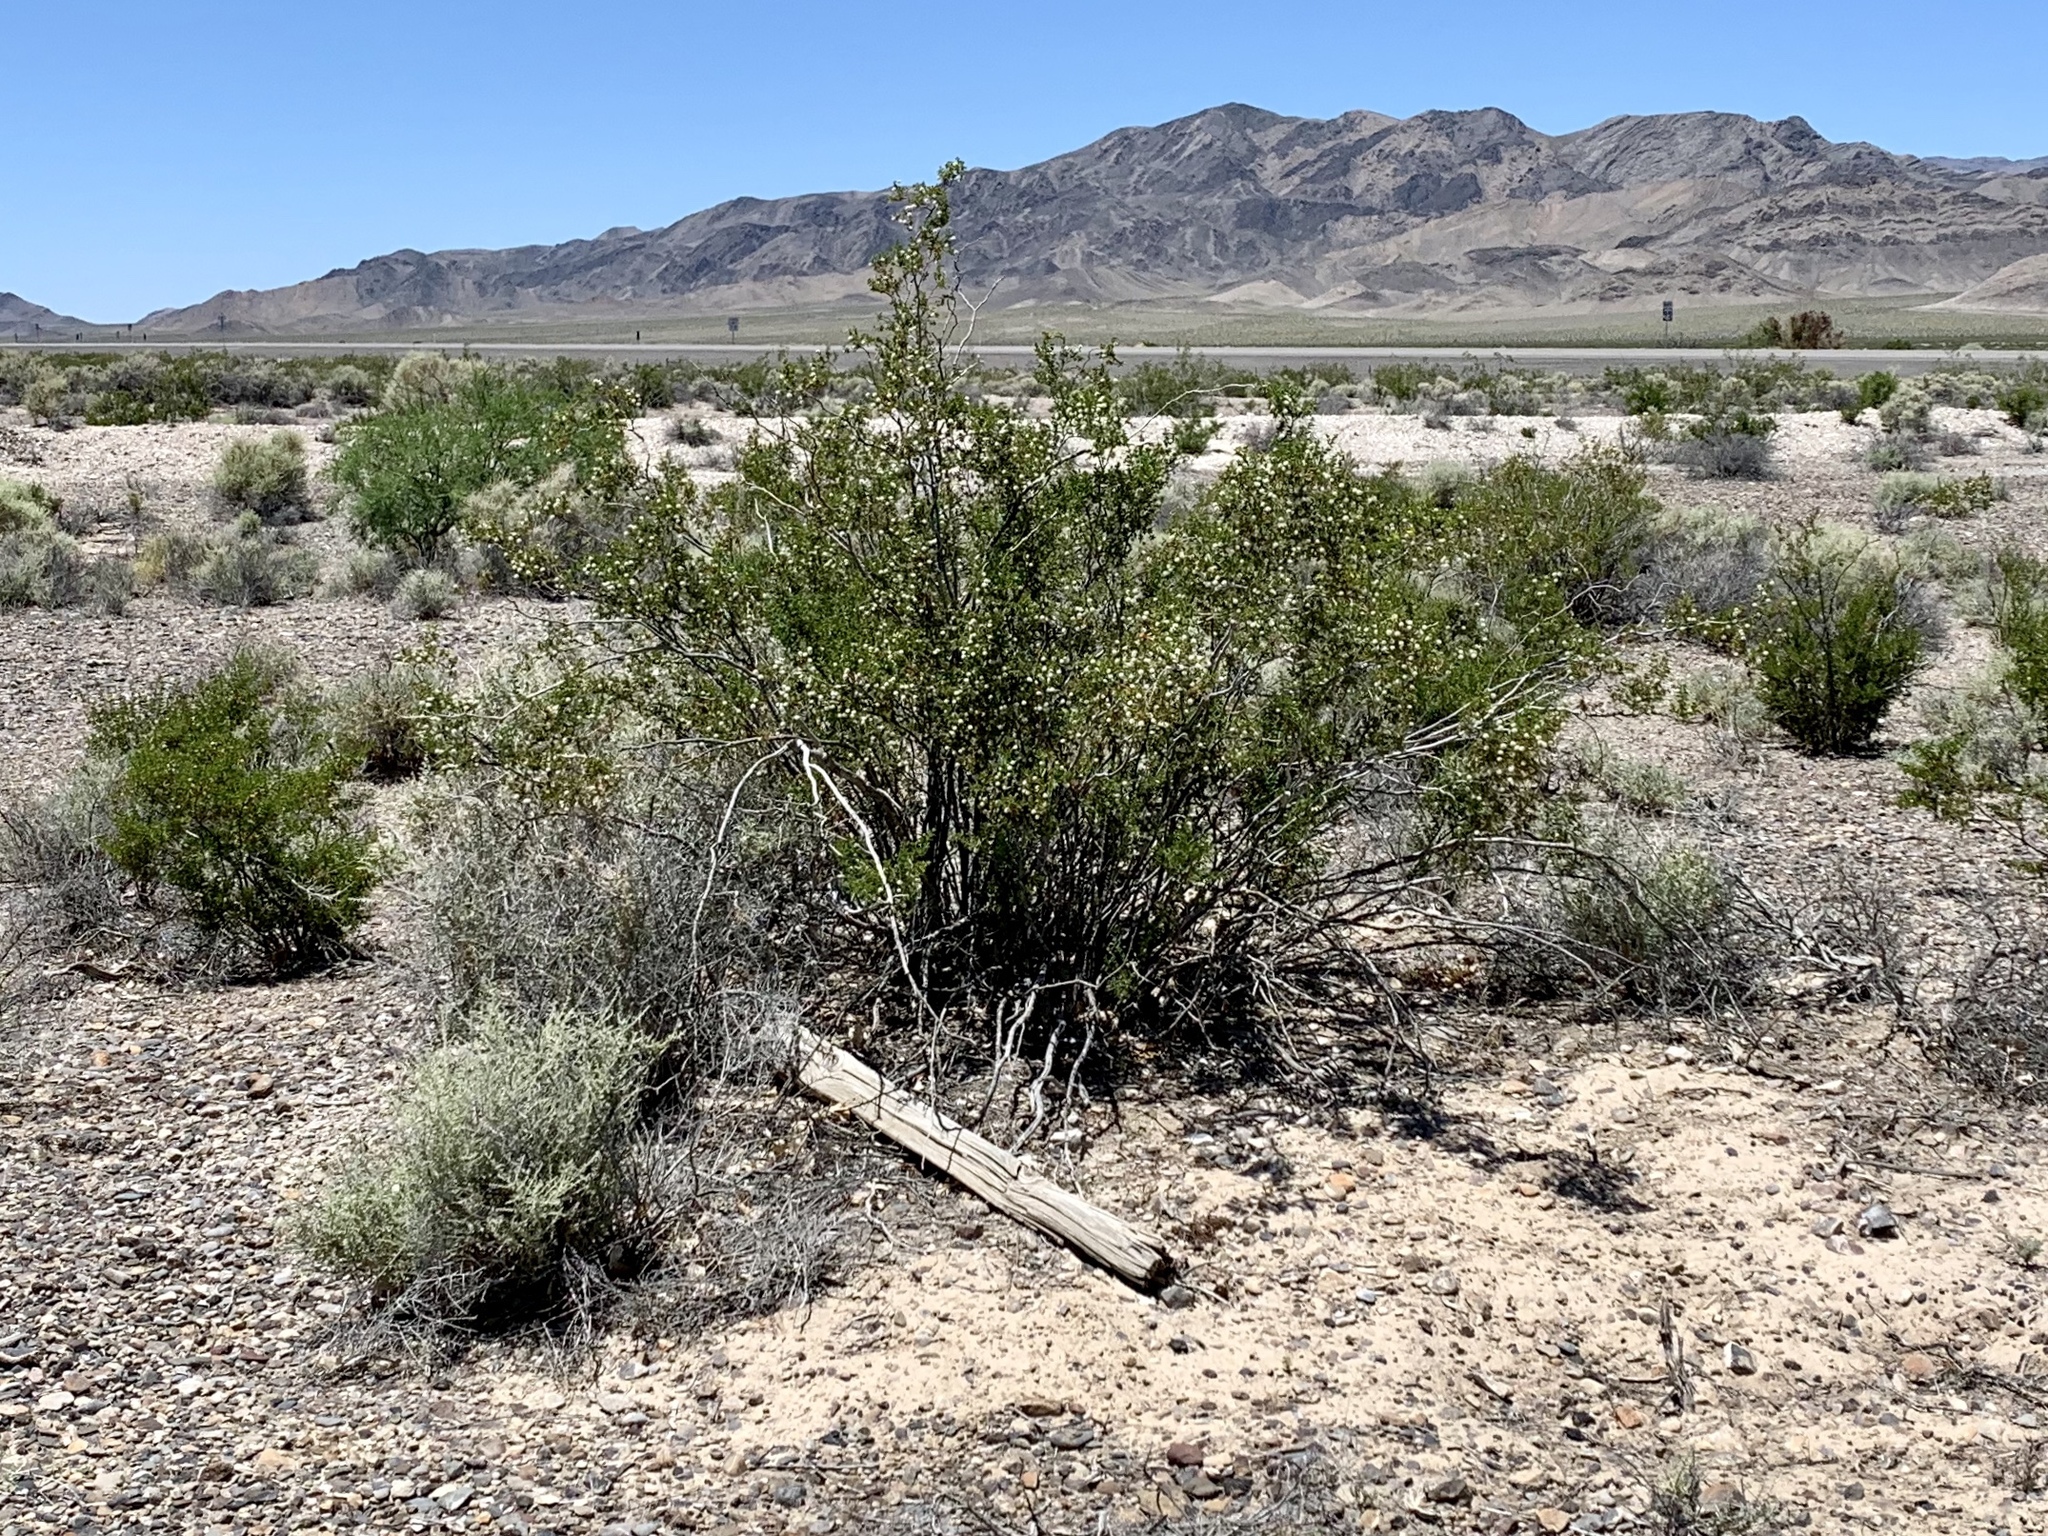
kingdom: Plantae
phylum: Tracheophyta
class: Magnoliopsida
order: Zygophyllales
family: Zygophyllaceae
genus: Larrea
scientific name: Larrea tridentata
